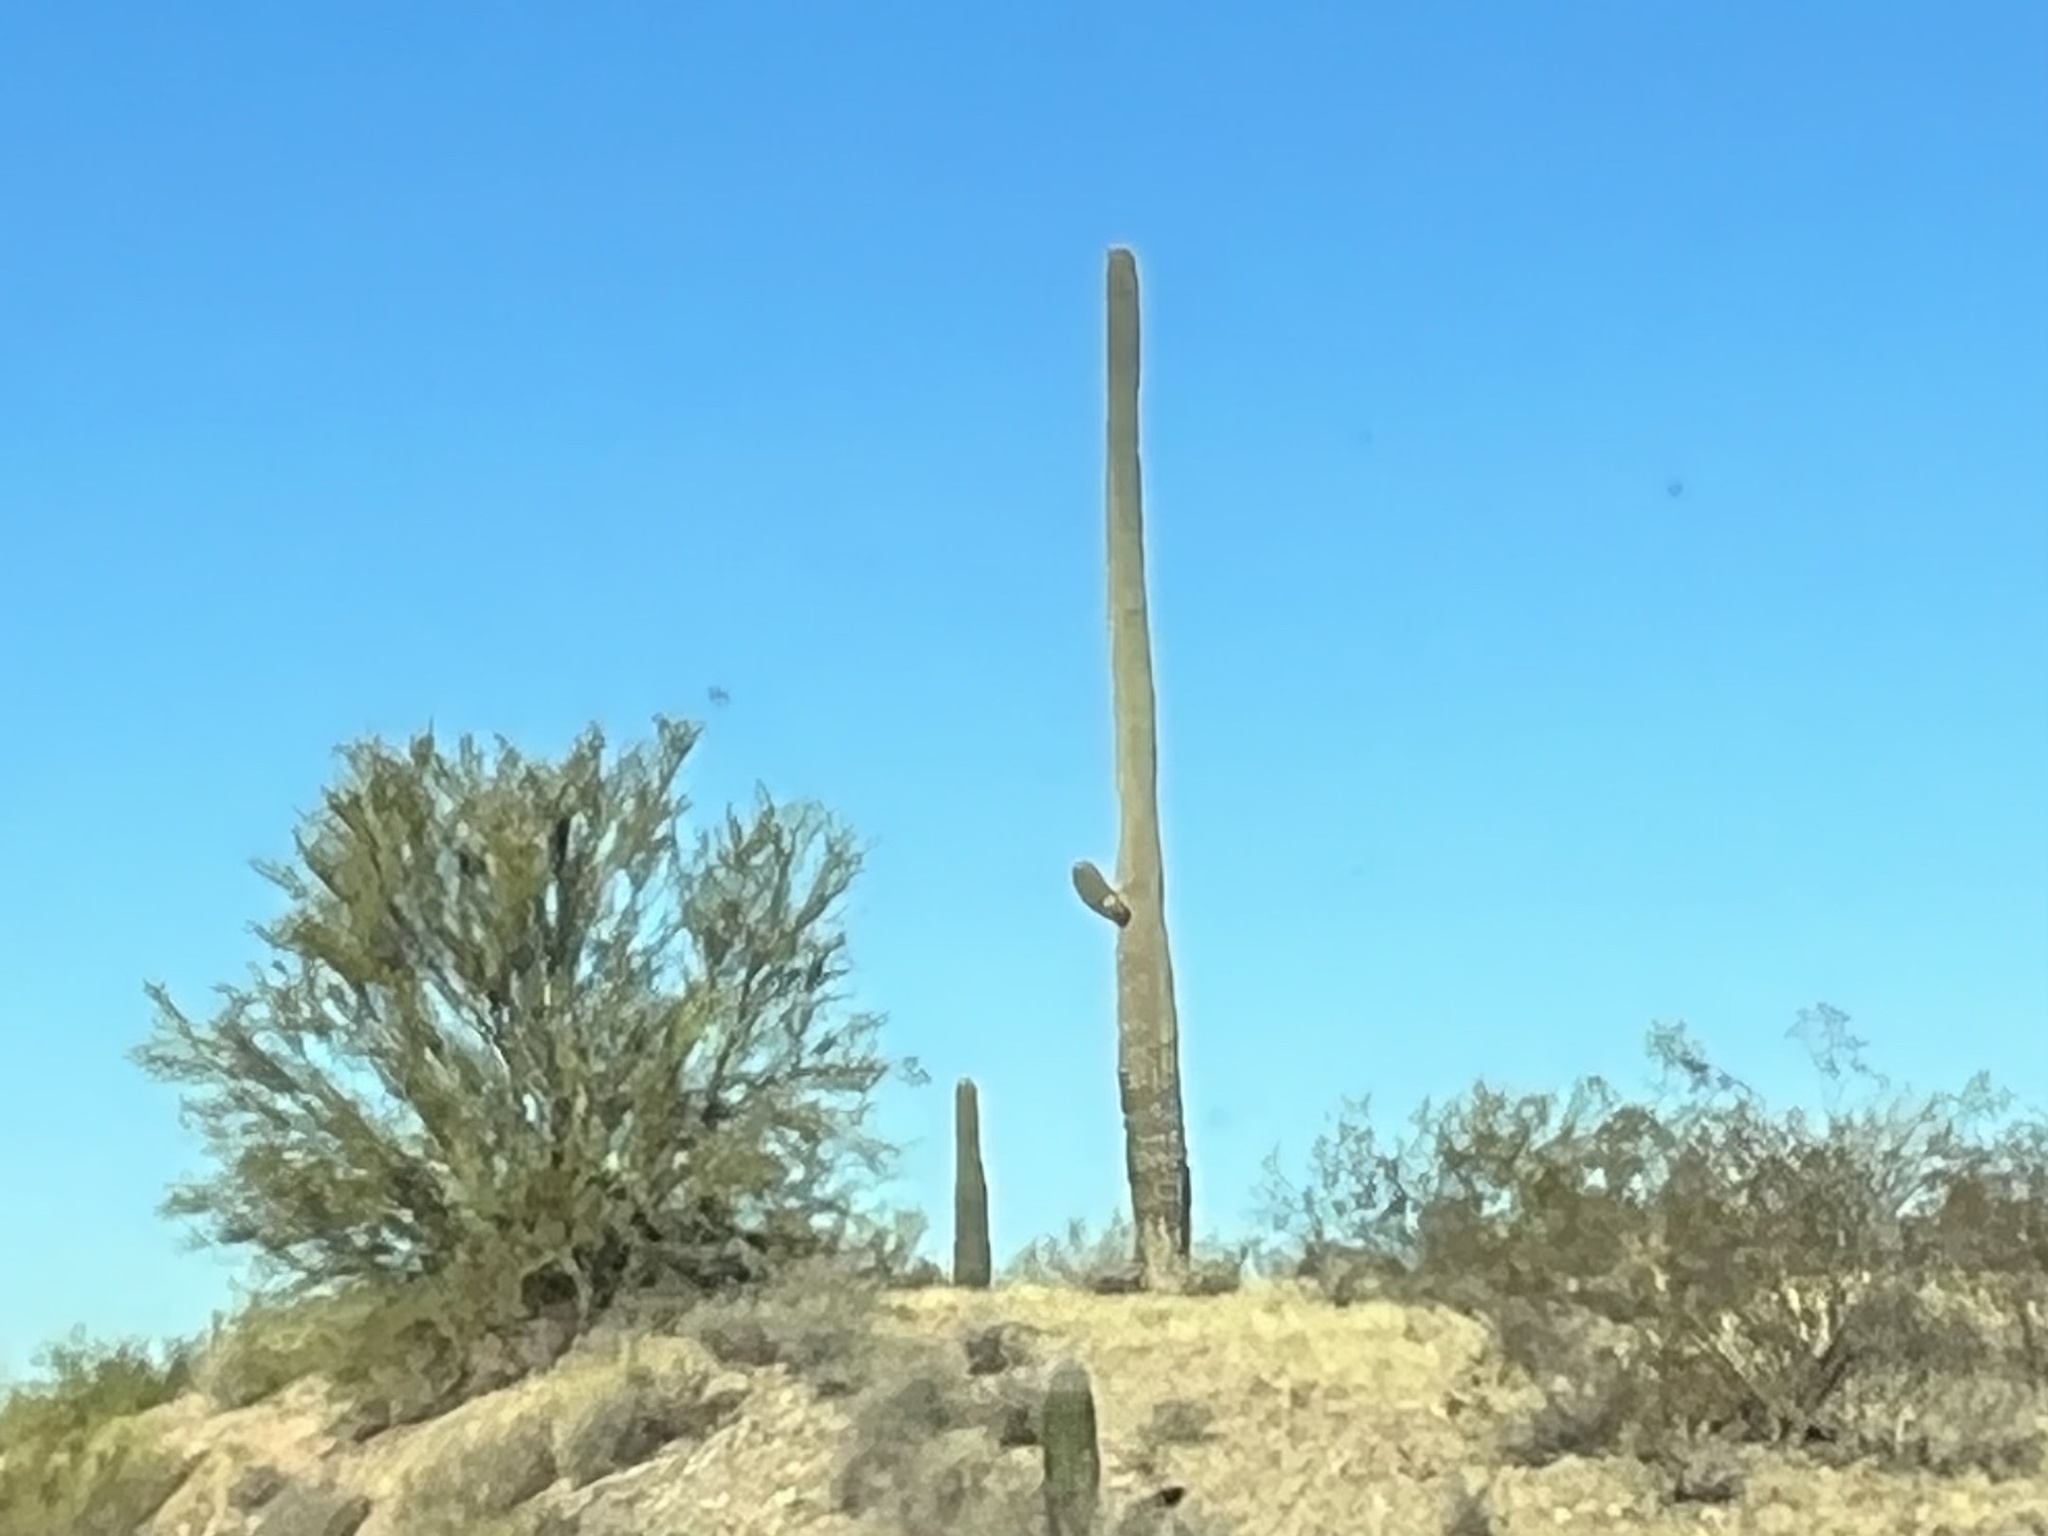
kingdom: Plantae
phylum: Tracheophyta
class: Magnoliopsida
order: Caryophyllales
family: Cactaceae
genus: Carnegiea
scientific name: Carnegiea gigantea
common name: Saguaro
